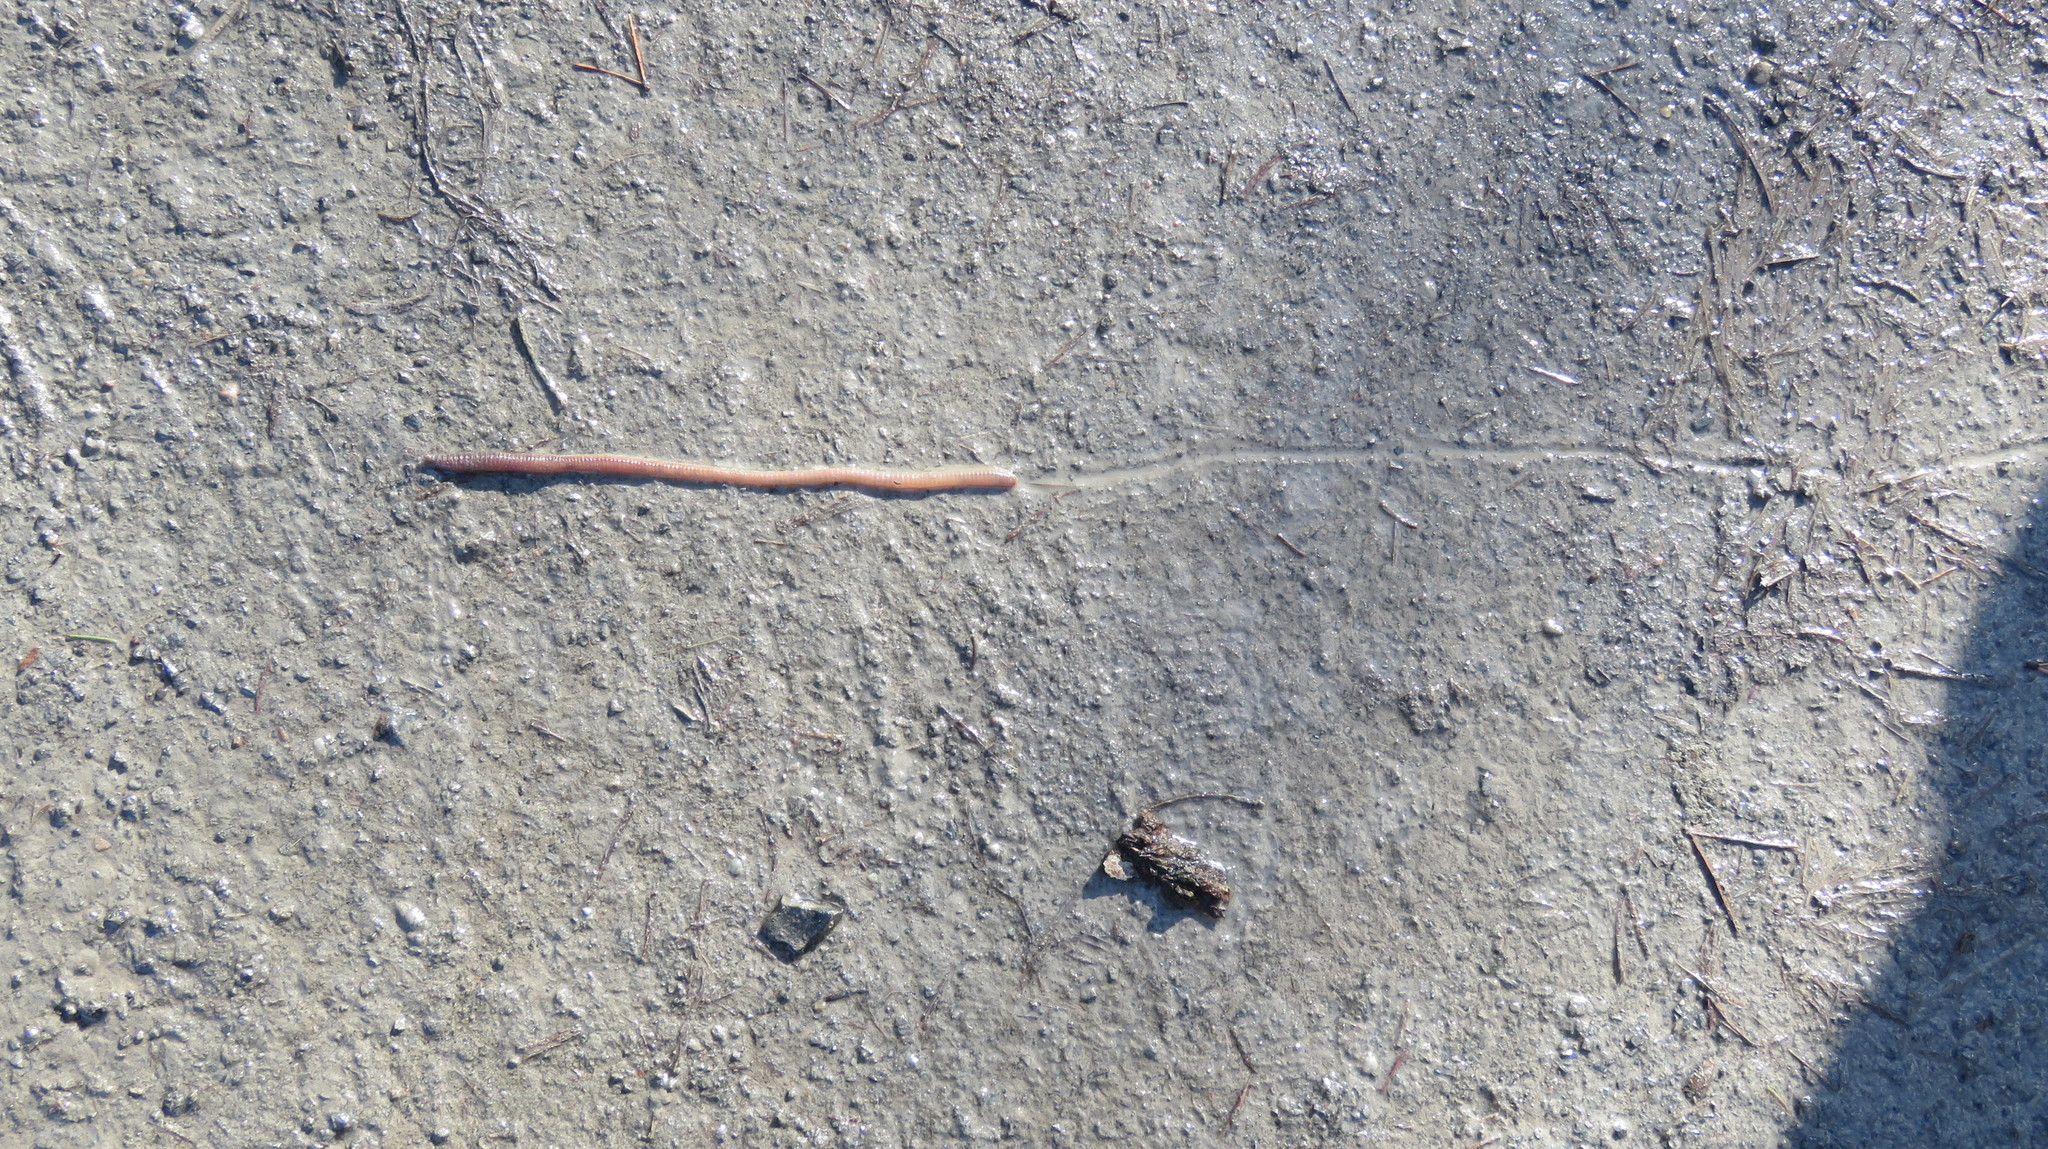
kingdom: Animalia
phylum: Annelida
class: Clitellata
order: Crassiclitellata
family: Lumbricidae
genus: Lumbricus
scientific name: Lumbricus terrestris
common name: Common earthworm
